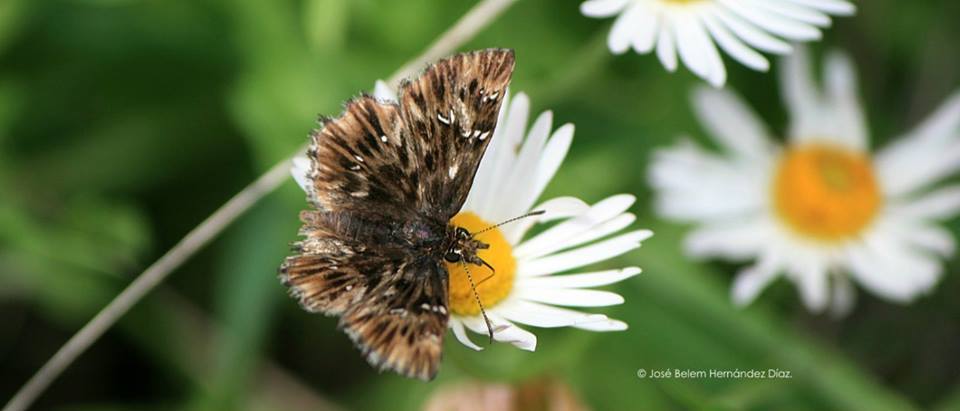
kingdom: Animalia
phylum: Arthropoda
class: Insecta
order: Lepidoptera
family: Hesperiidae
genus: Celotes
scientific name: Celotes spurcus
